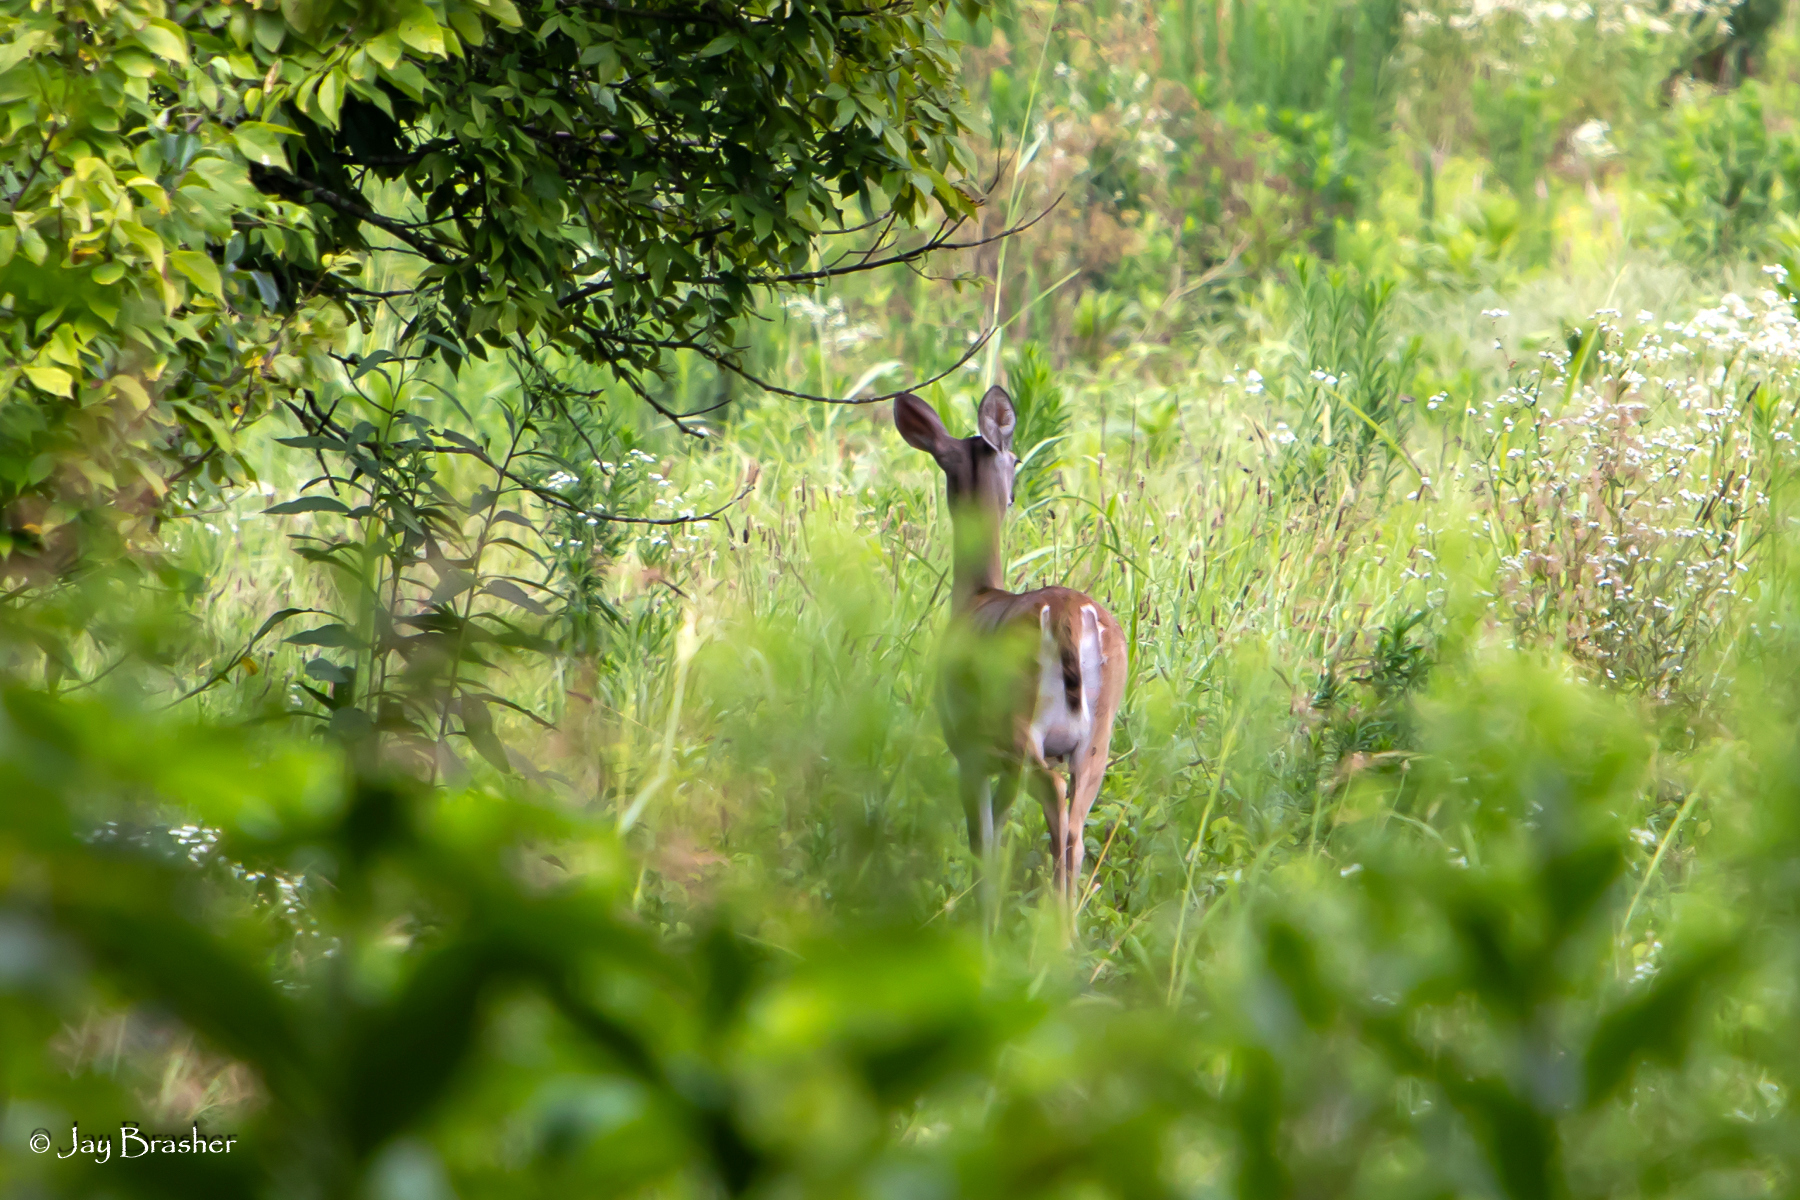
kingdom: Animalia
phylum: Chordata
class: Mammalia
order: Artiodactyla
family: Cervidae
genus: Odocoileus
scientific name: Odocoileus virginianus
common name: White-tailed deer
